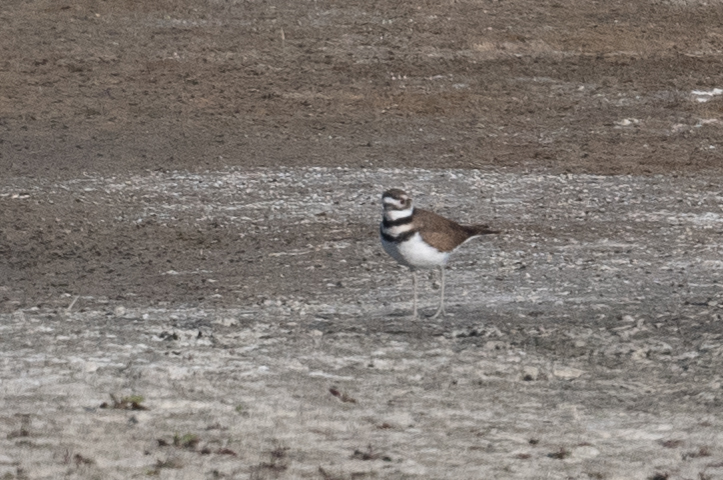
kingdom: Animalia
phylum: Chordata
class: Aves
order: Charadriiformes
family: Charadriidae
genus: Charadrius
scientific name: Charadrius vociferus
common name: Killdeer
